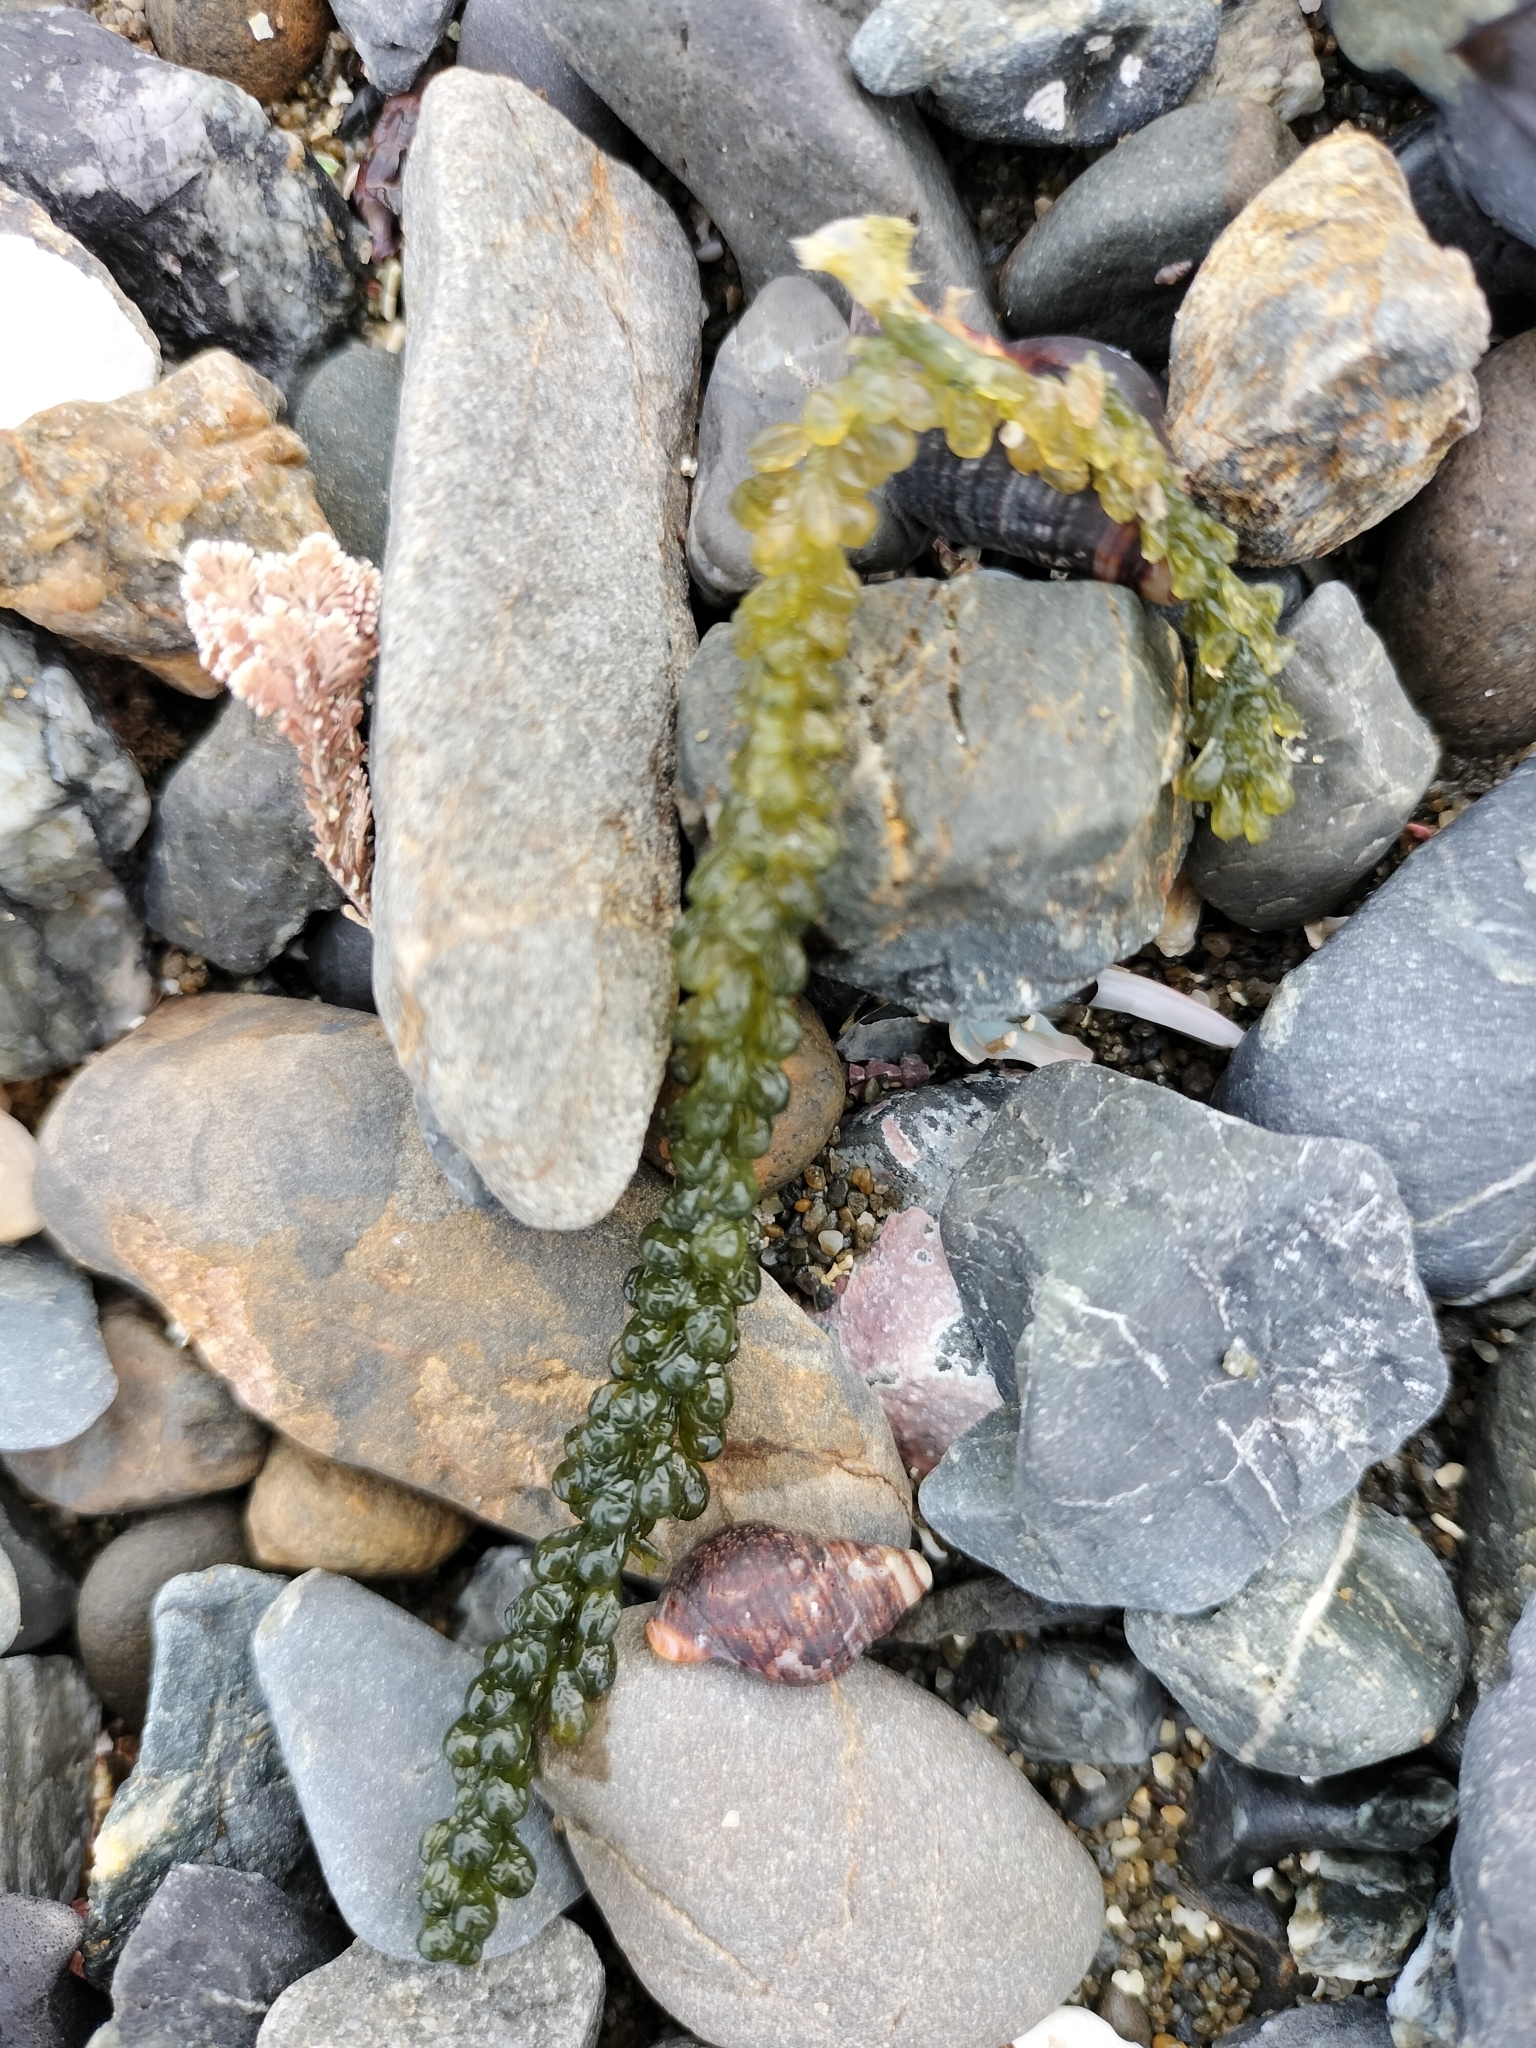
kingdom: Plantae
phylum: Chlorophyta
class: Ulvophyceae
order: Bryopsidales
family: Caulerpaceae
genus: Caulerpa
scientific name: Caulerpa geminata
